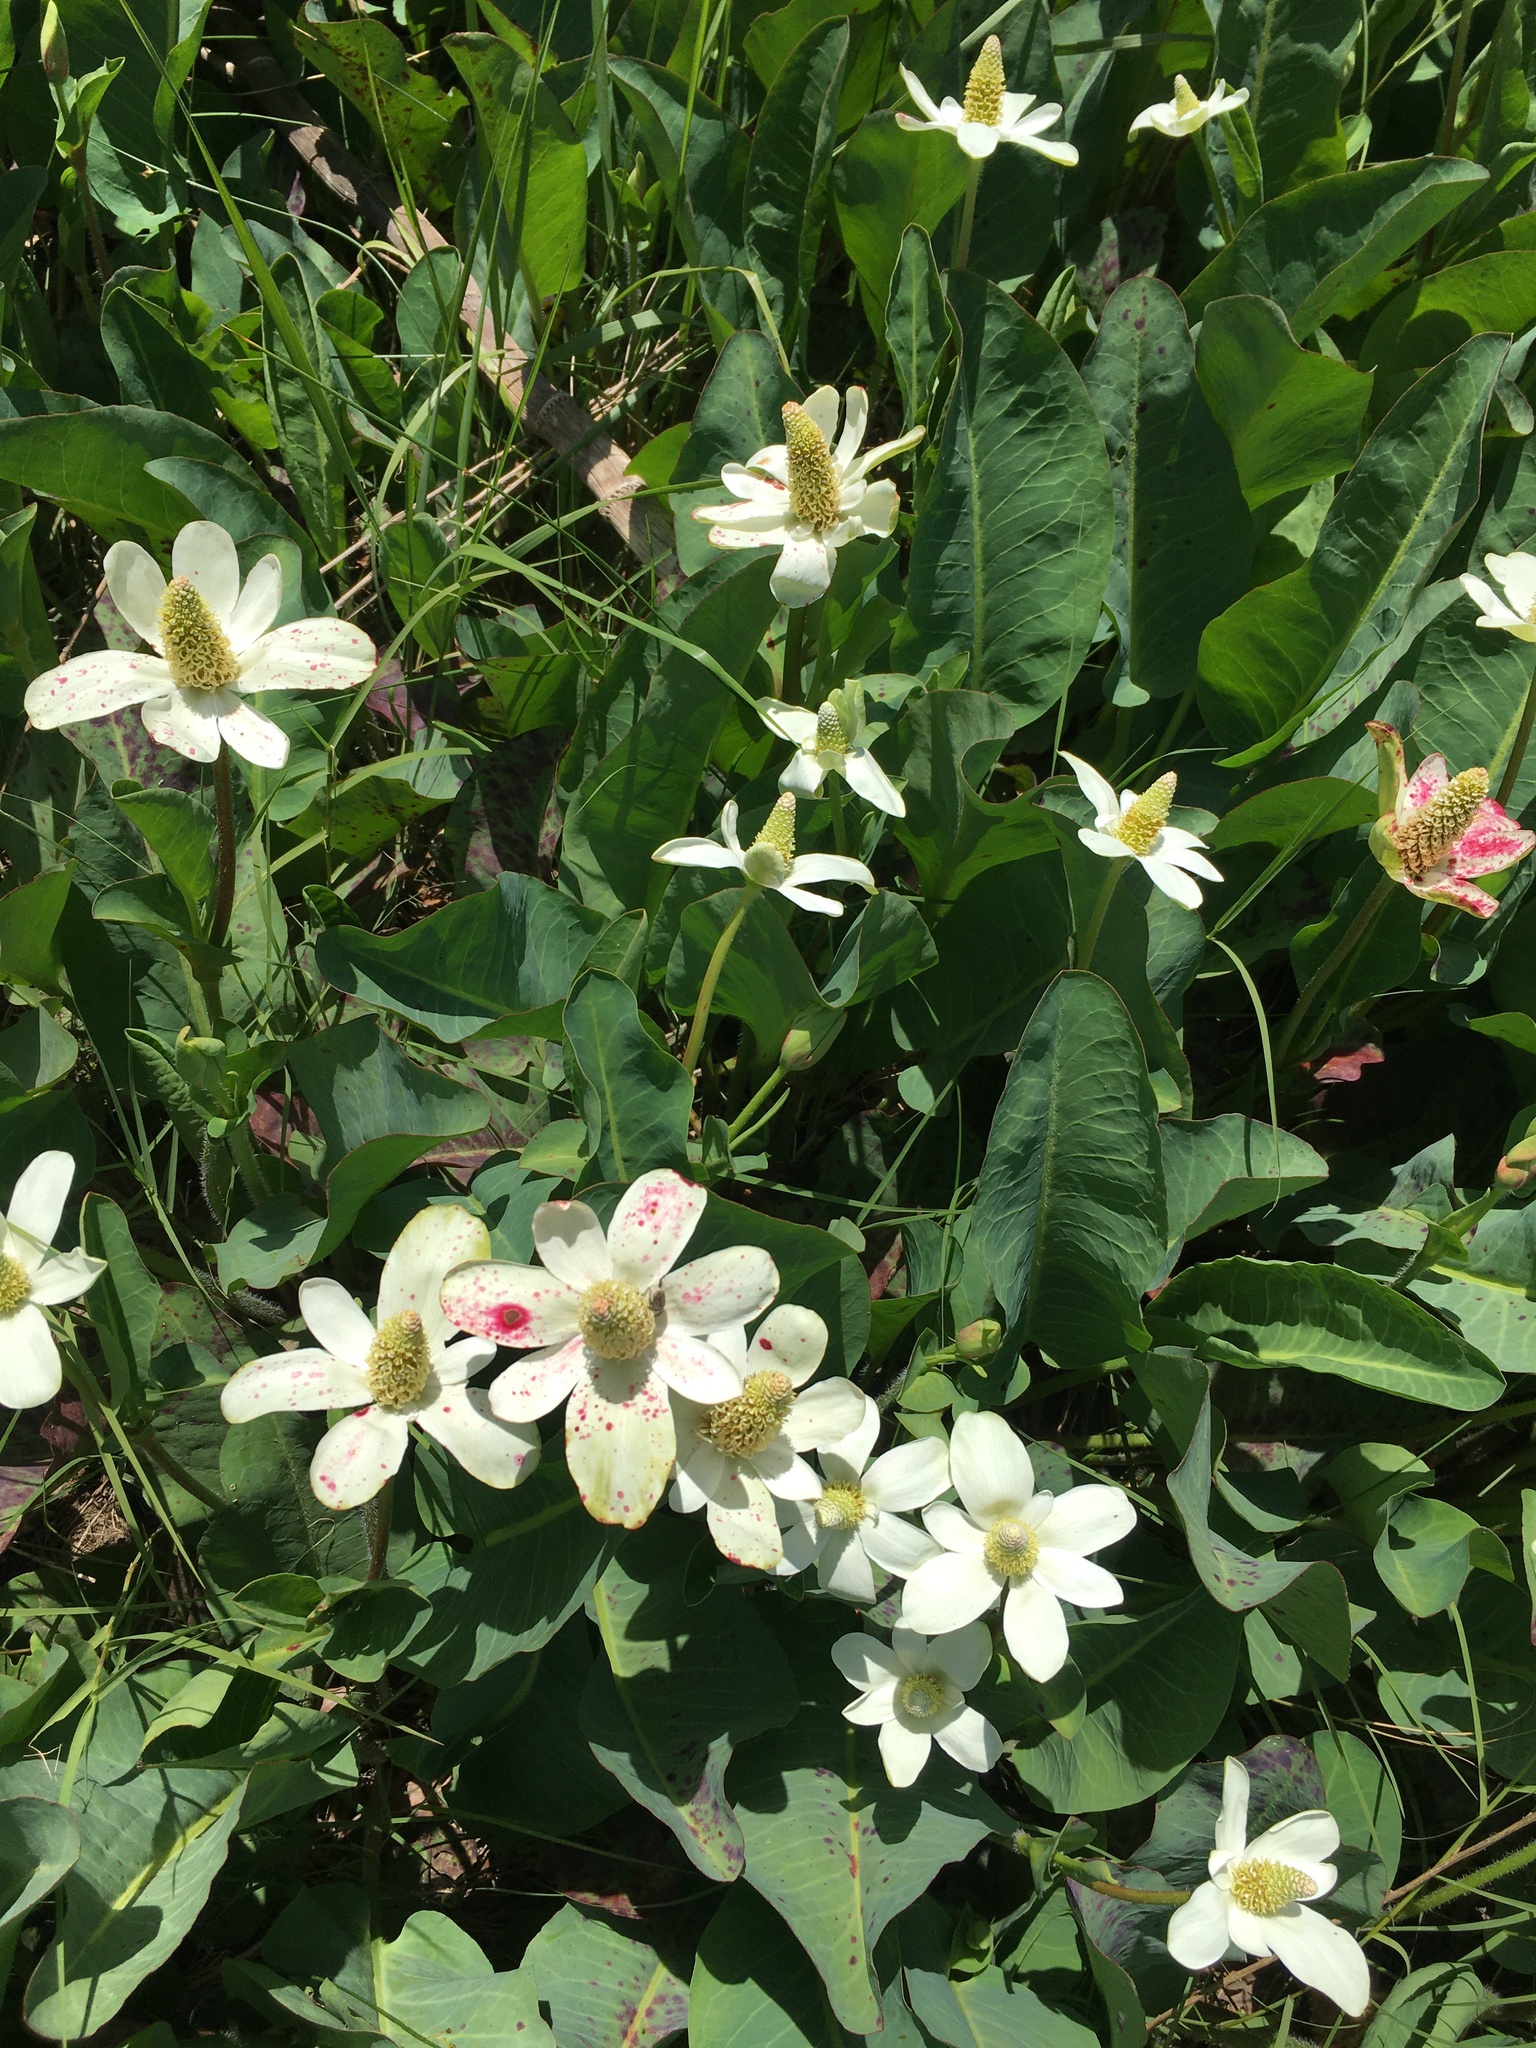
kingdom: Plantae
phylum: Tracheophyta
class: Magnoliopsida
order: Piperales
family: Saururaceae
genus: Anemopsis
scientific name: Anemopsis californica
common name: Apache-beads
